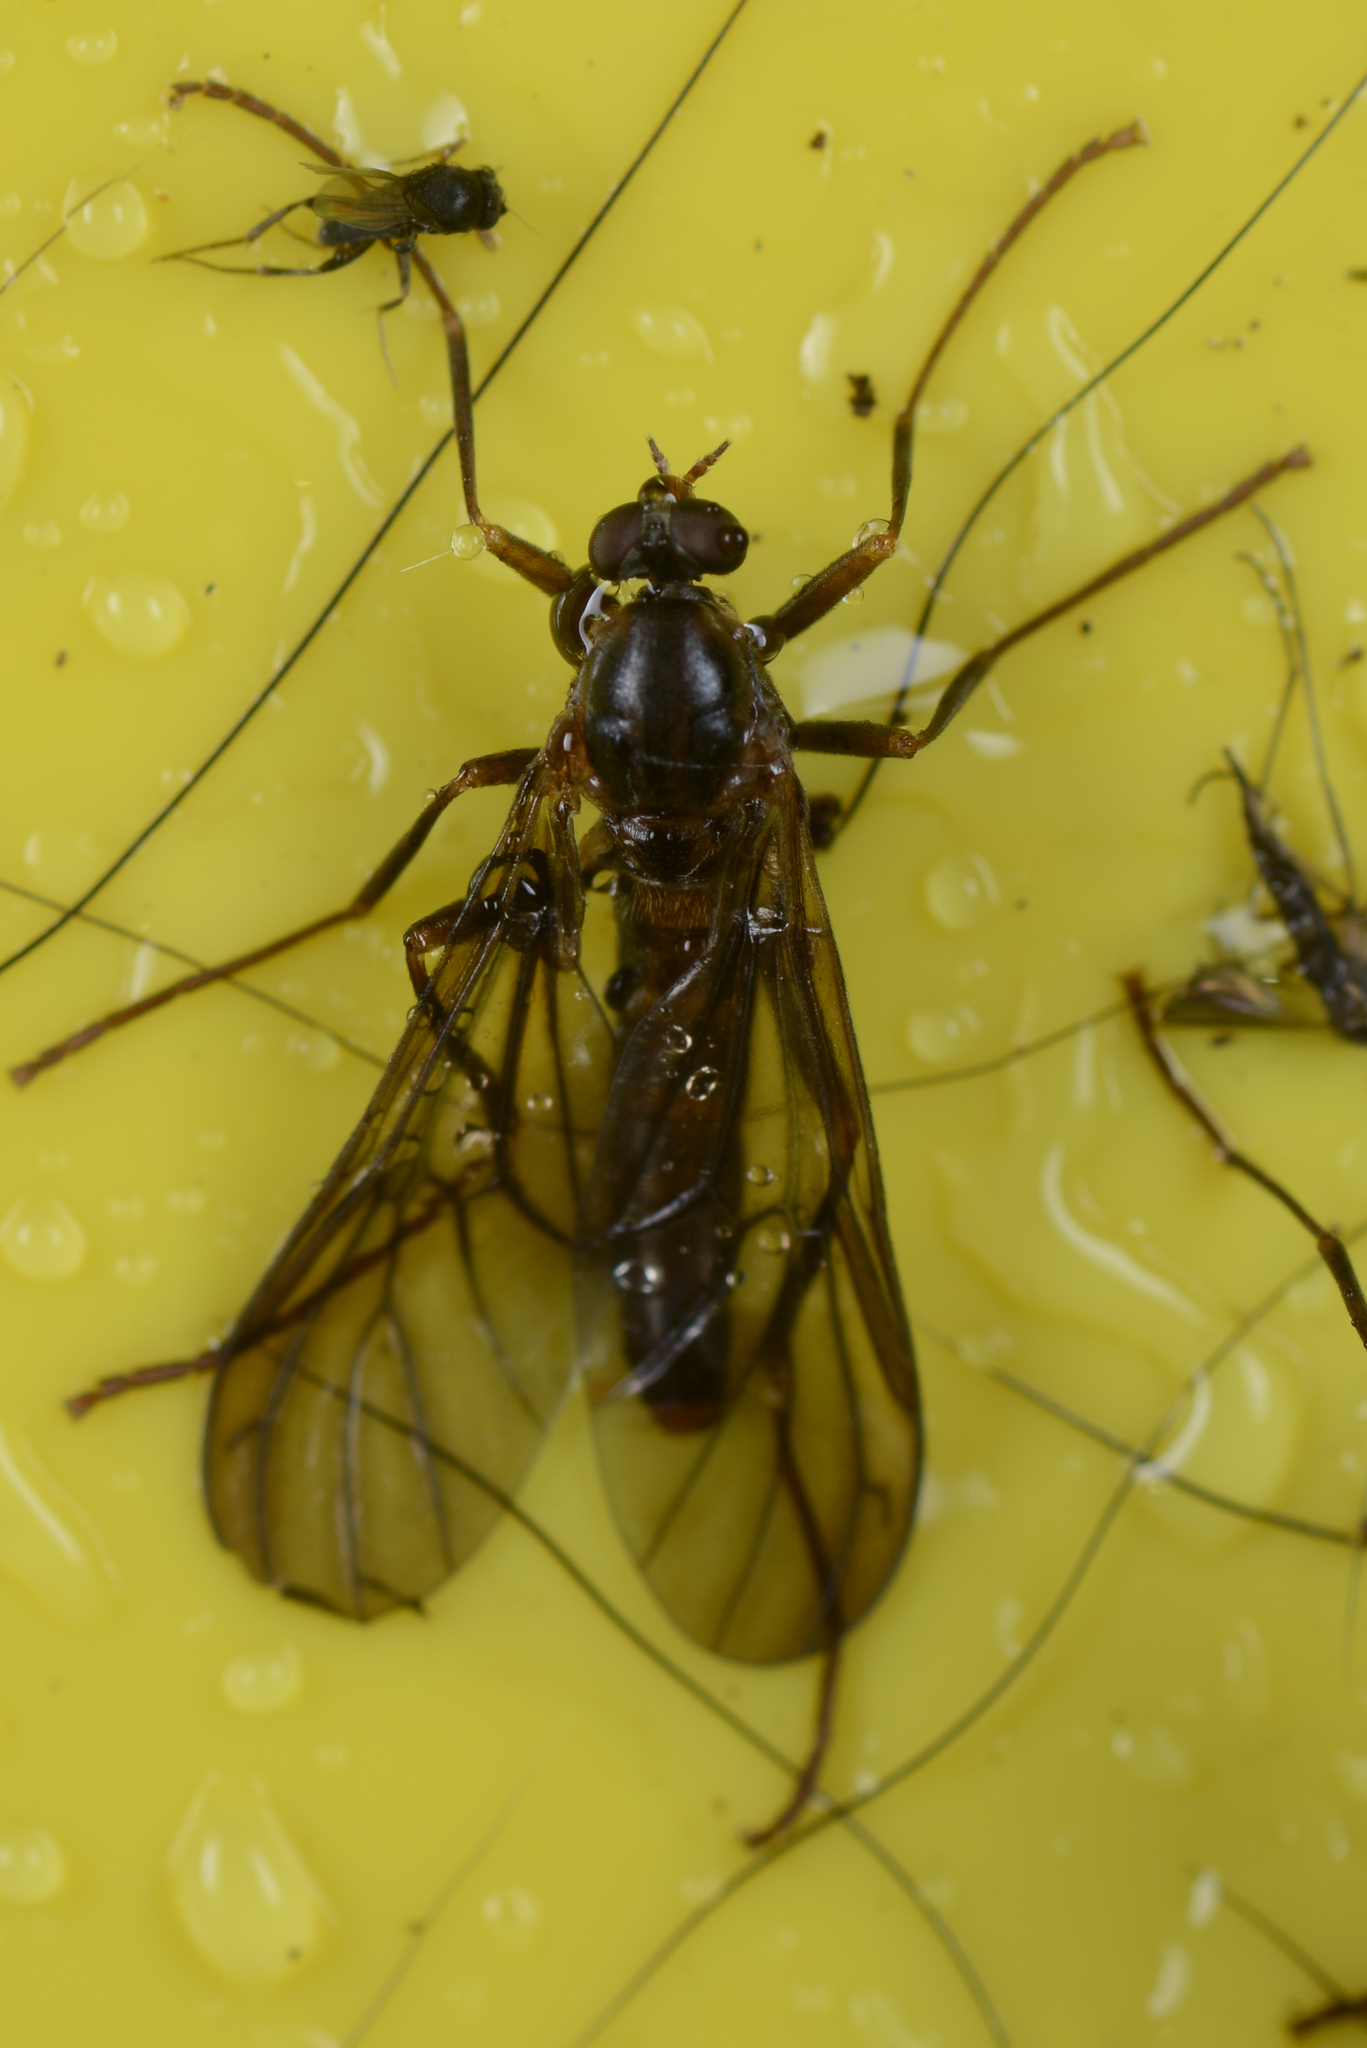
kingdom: Animalia
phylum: Arthropoda
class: Insecta
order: Diptera
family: Stratiomyidae
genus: Boreoides
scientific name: Boreoides tasmaniensis
